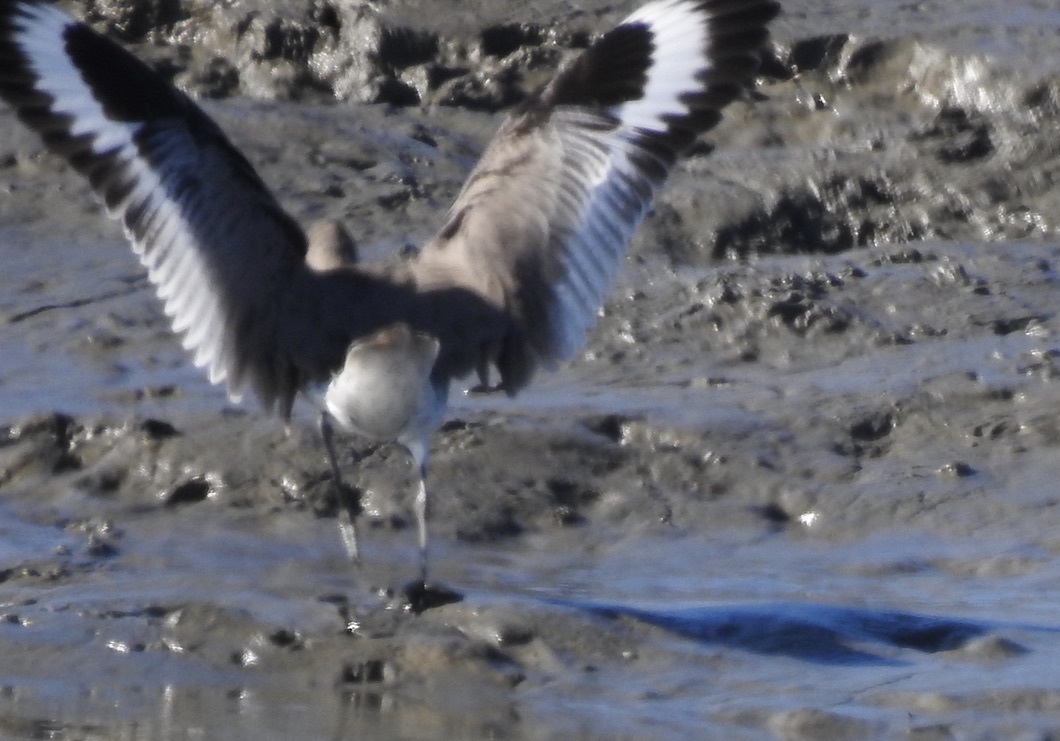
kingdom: Animalia
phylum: Chordata
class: Aves
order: Charadriiformes
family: Scolopacidae
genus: Tringa
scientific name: Tringa semipalmata
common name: Willet
